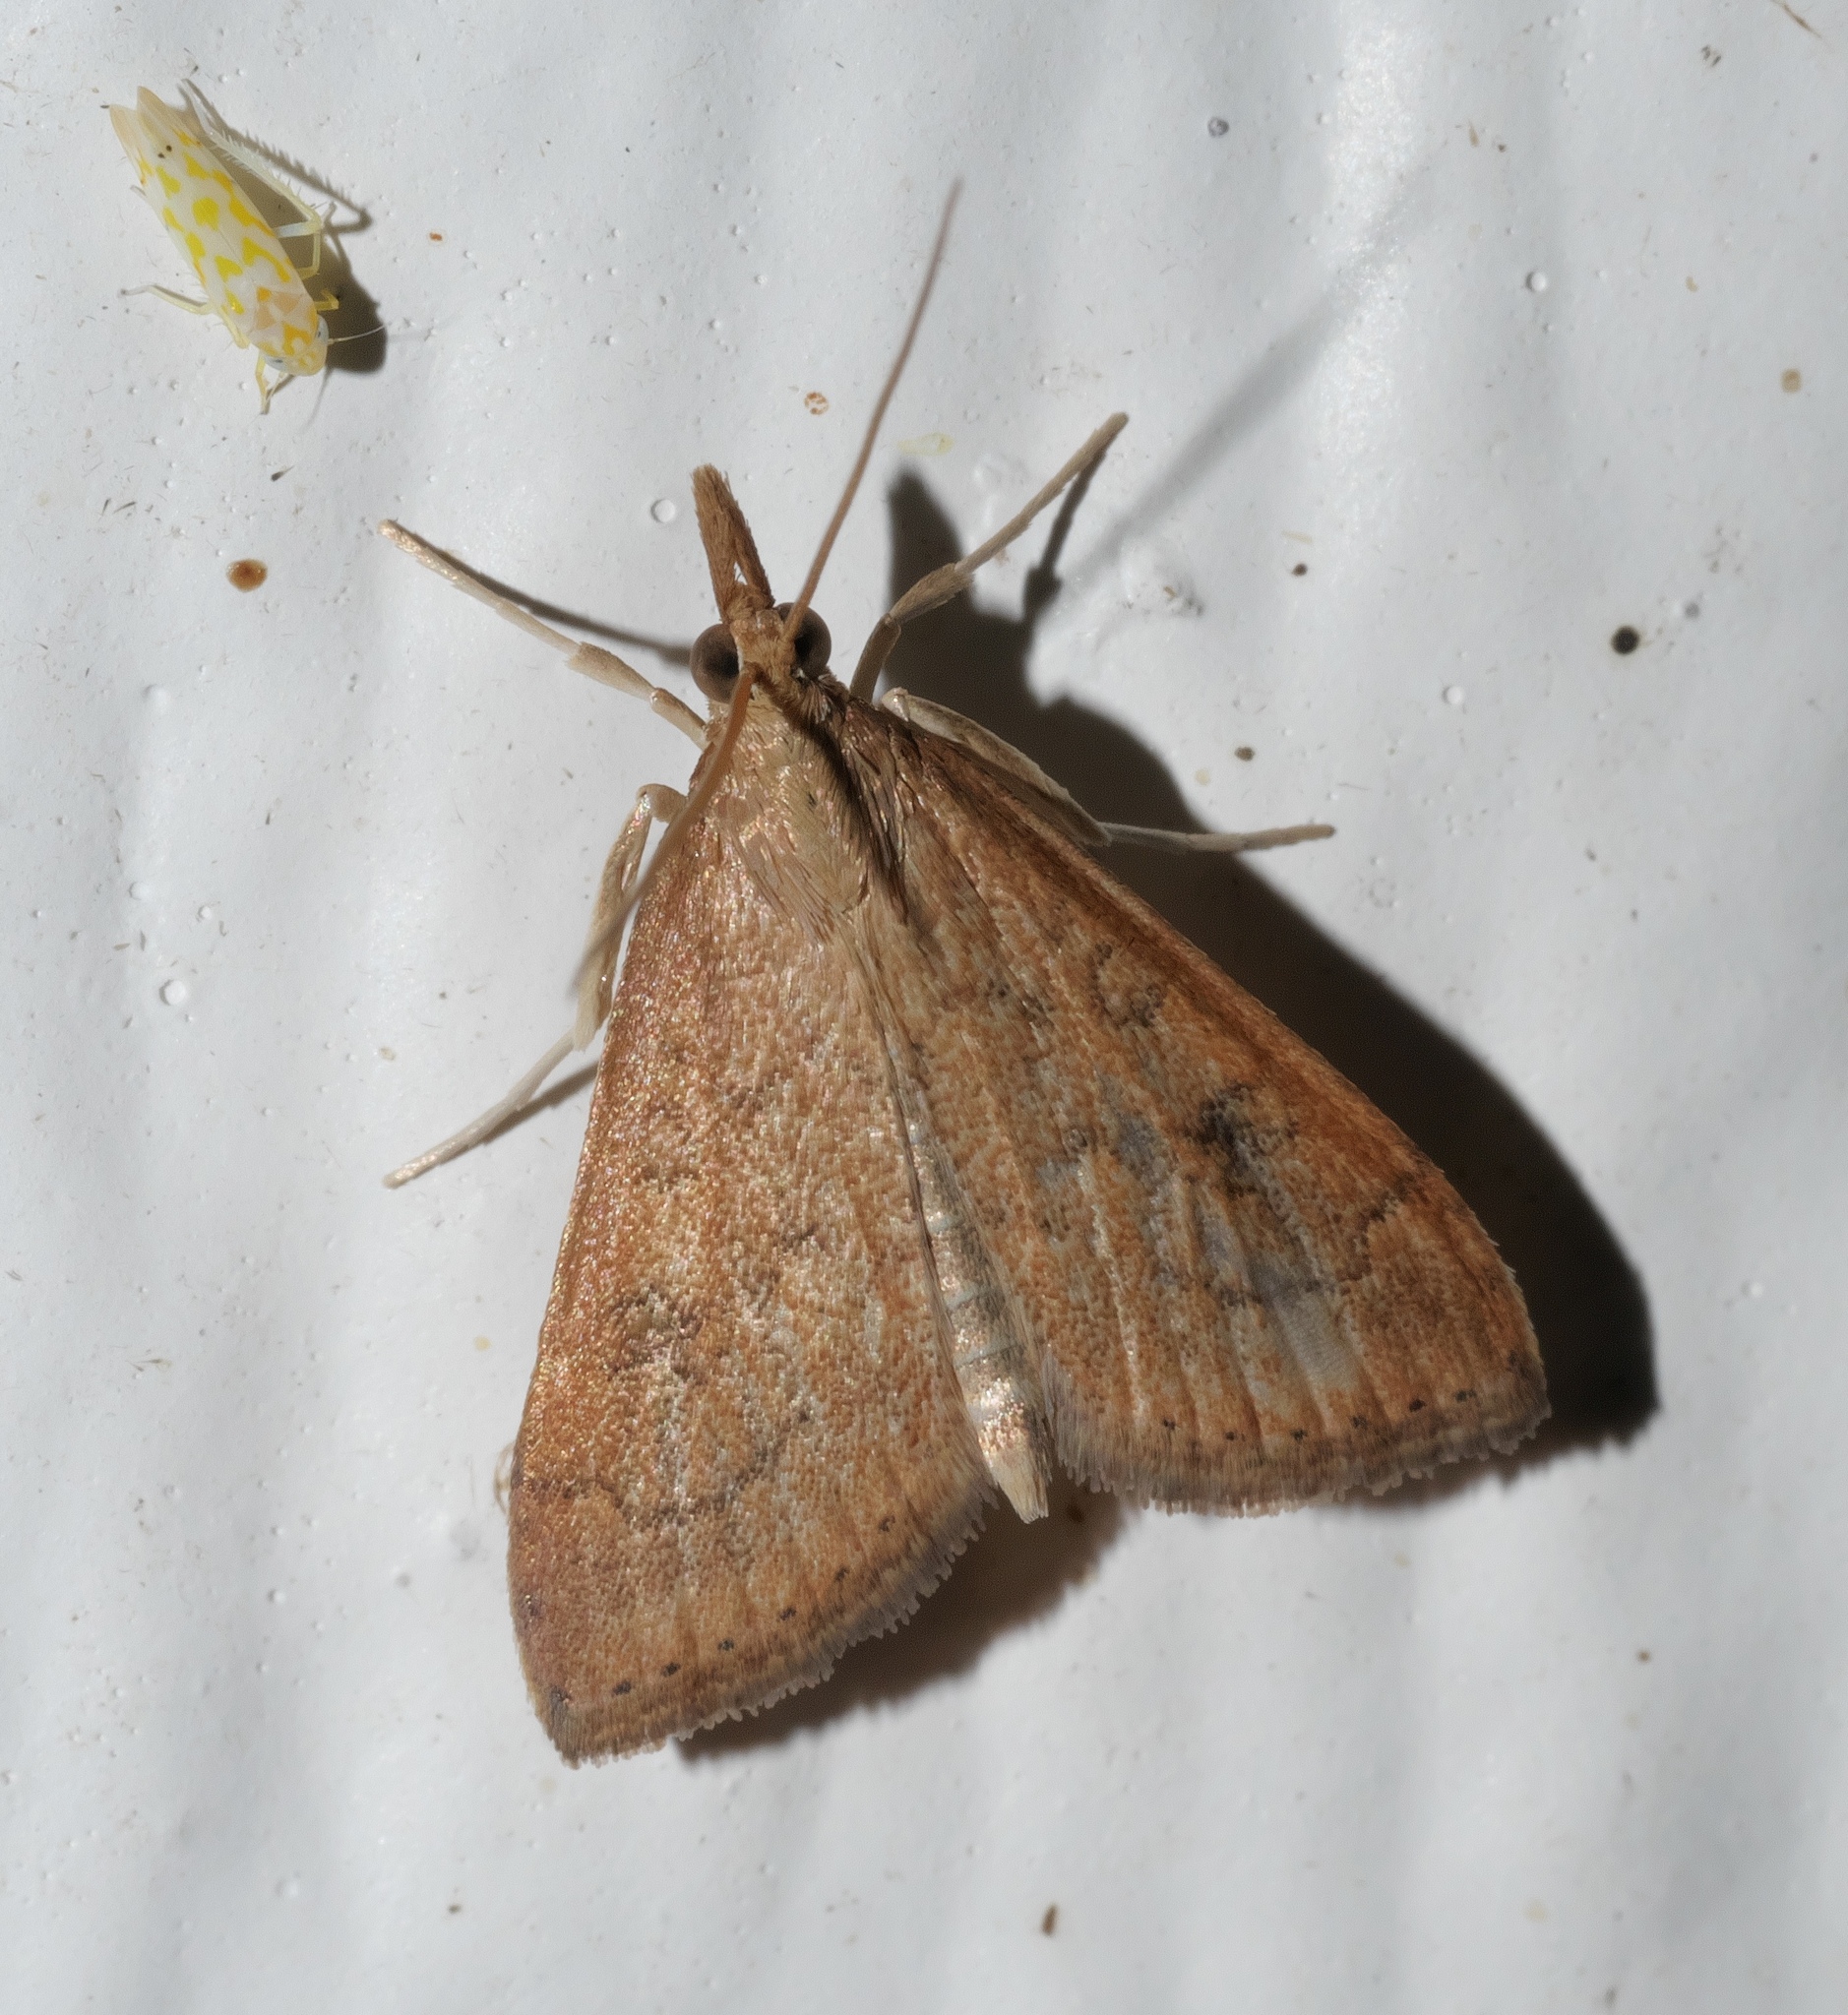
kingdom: Animalia
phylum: Arthropoda
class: Insecta
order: Lepidoptera
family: Crambidae
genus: Udea
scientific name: Udea rubigalis
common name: Celery leaftier moth
